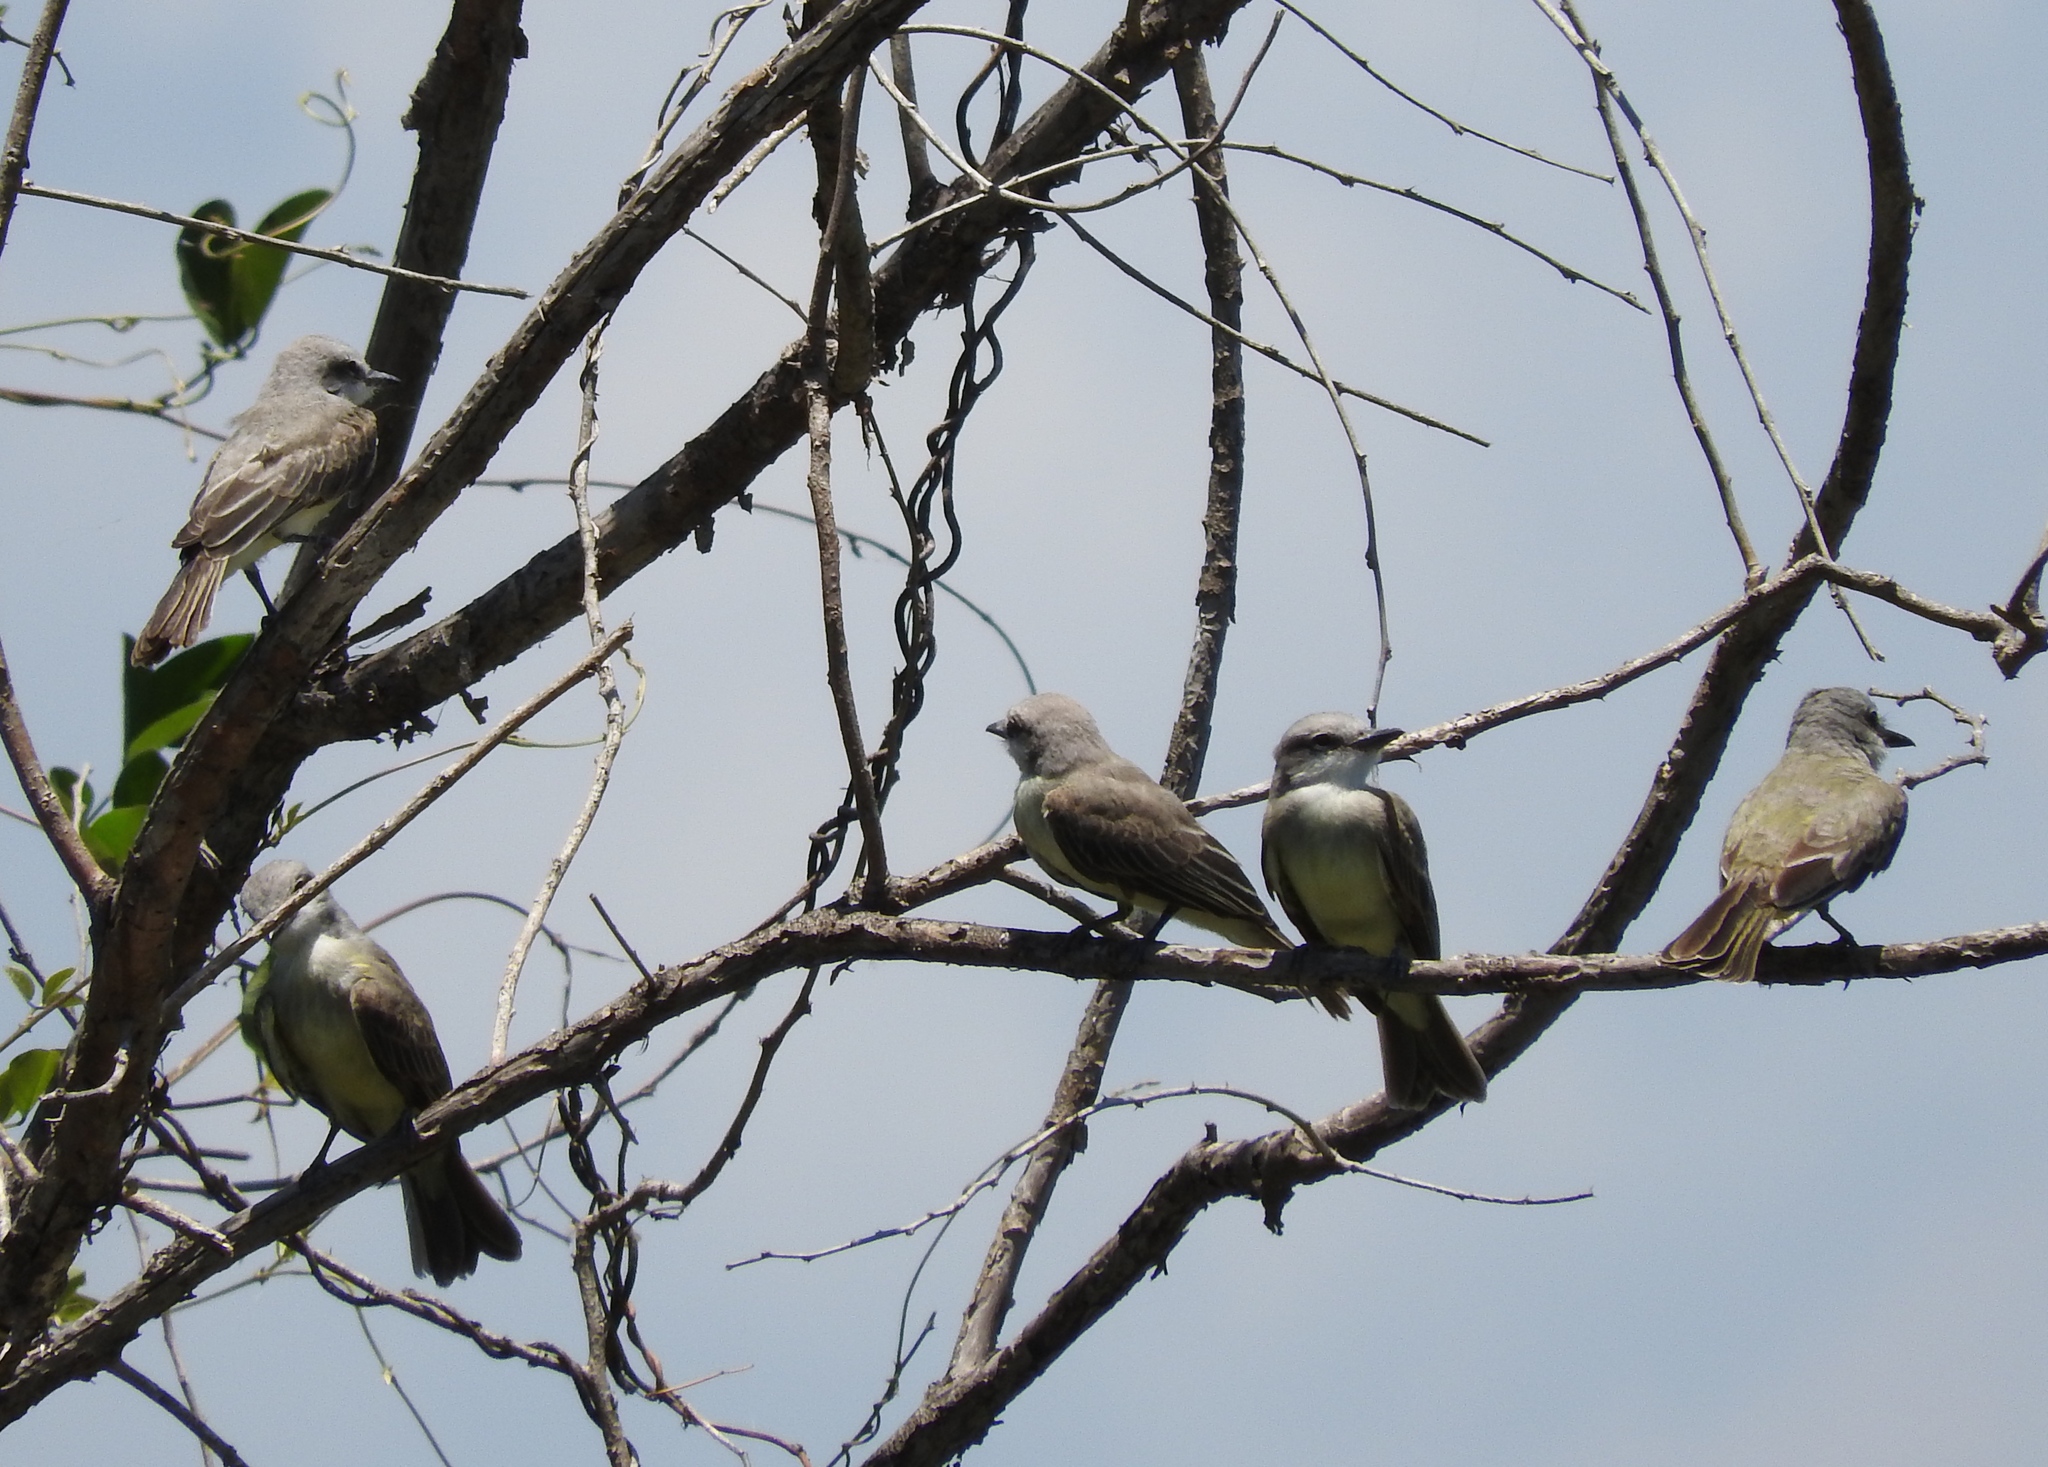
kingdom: Animalia
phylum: Chordata
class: Aves
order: Passeriformes
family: Tyrannidae
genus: Tyrannus
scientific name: Tyrannus verticalis
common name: Western kingbird
